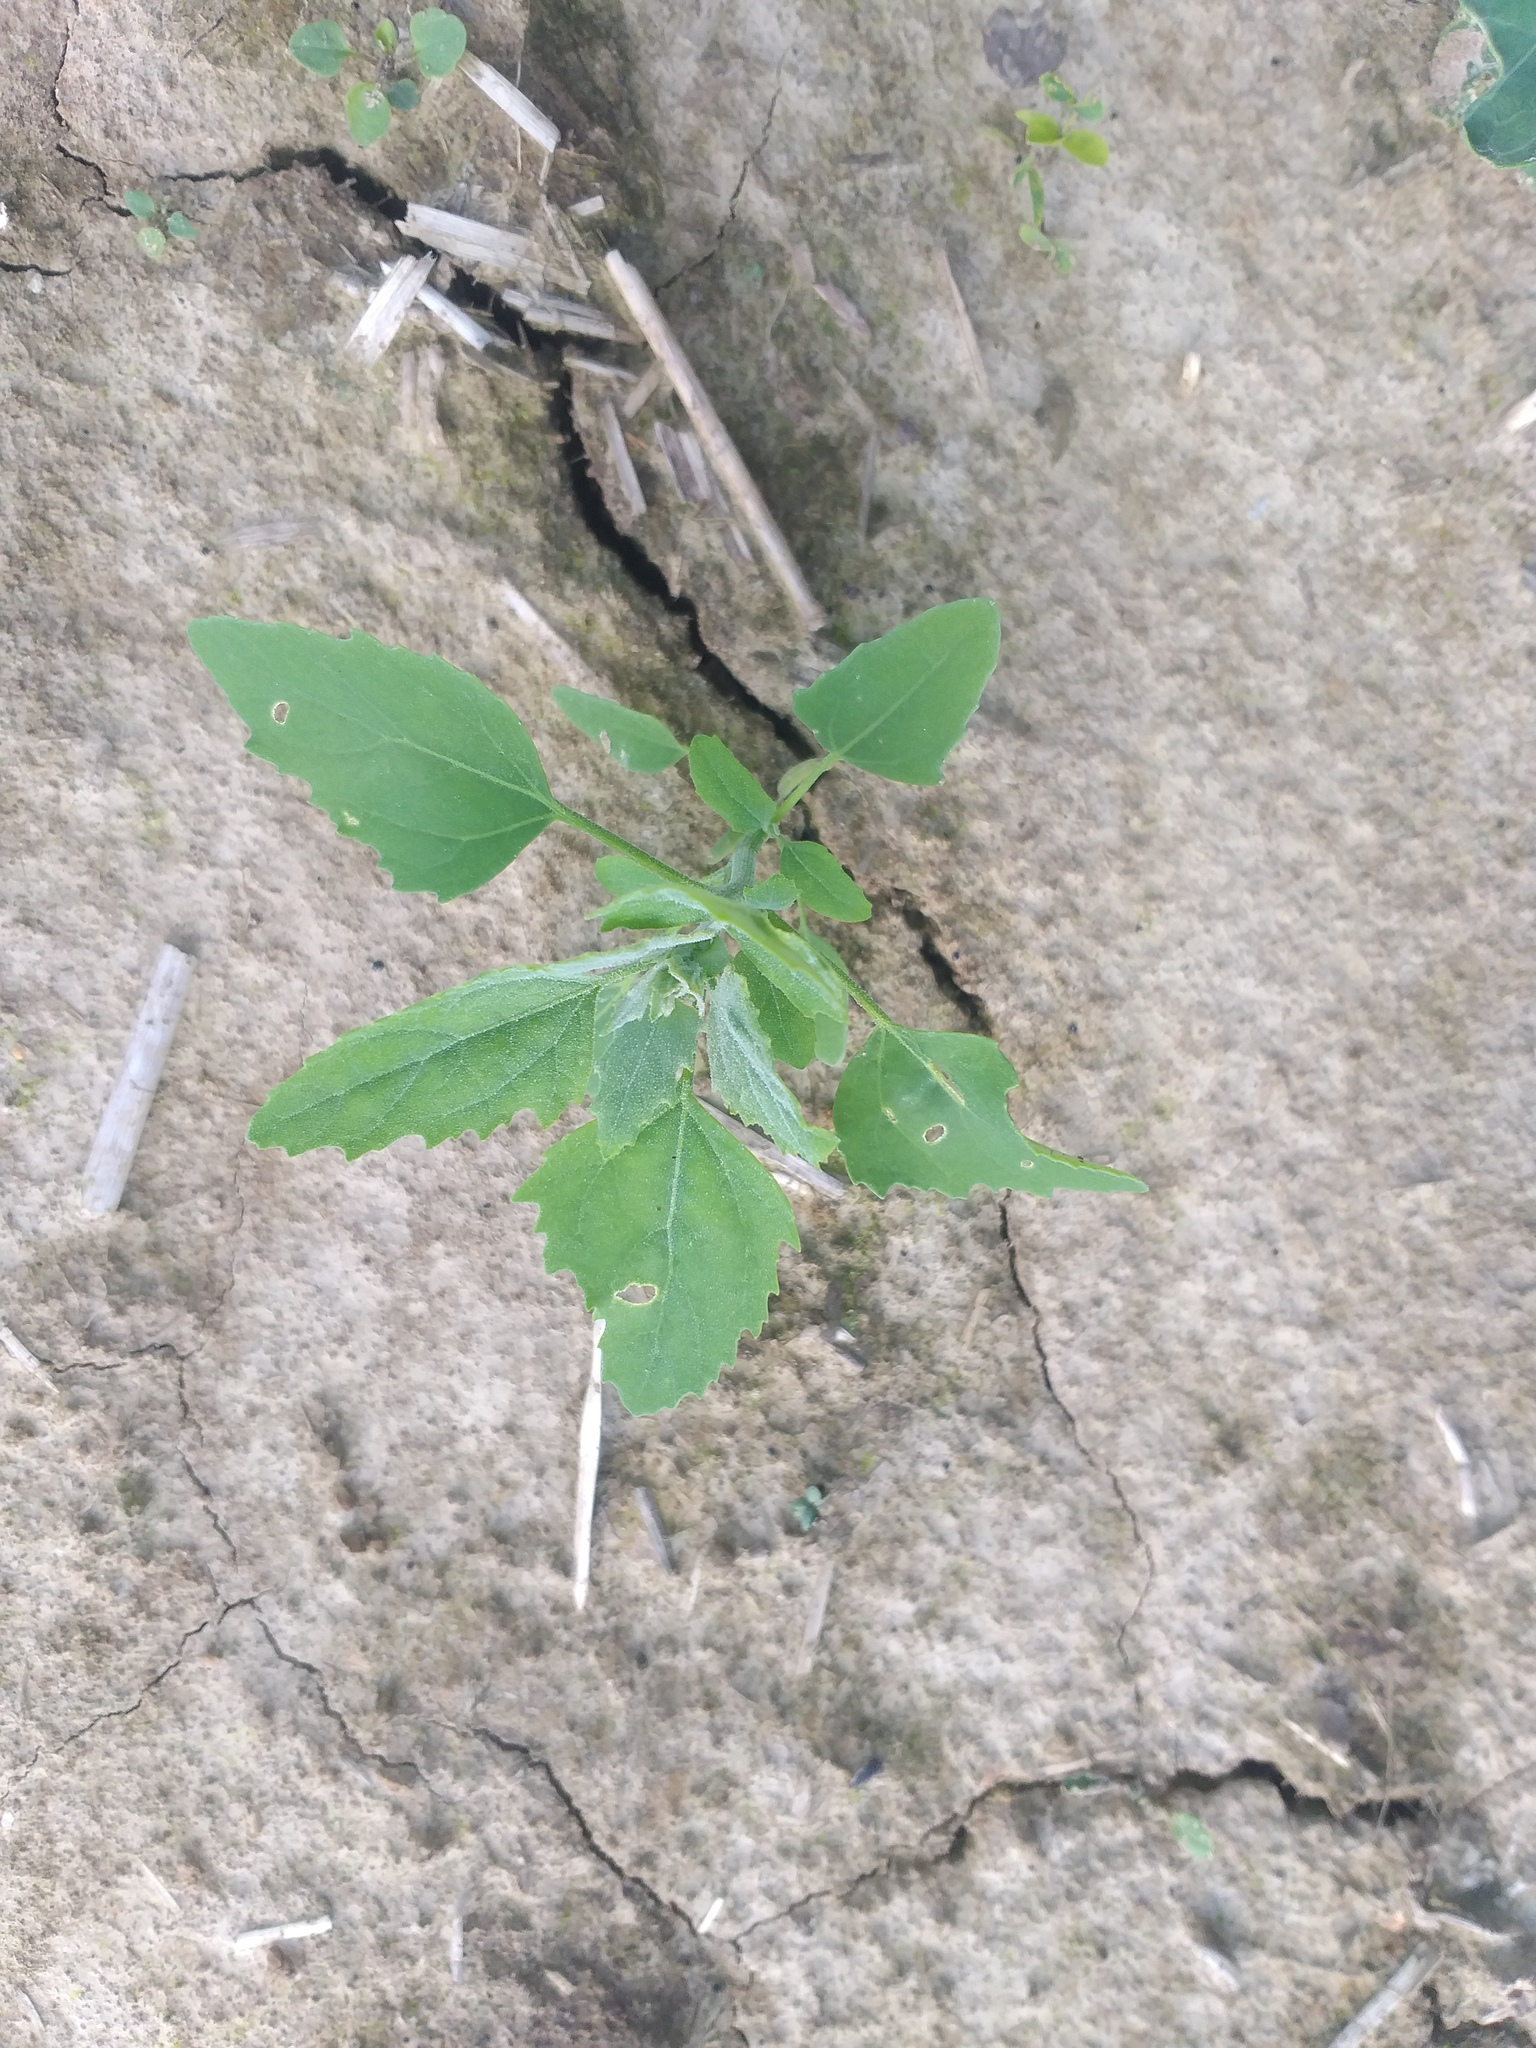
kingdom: Plantae
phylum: Tracheophyta
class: Magnoliopsida
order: Caryophyllales
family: Amaranthaceae
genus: Chenopodium
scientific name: Chenopodium album
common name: Fat-hen
